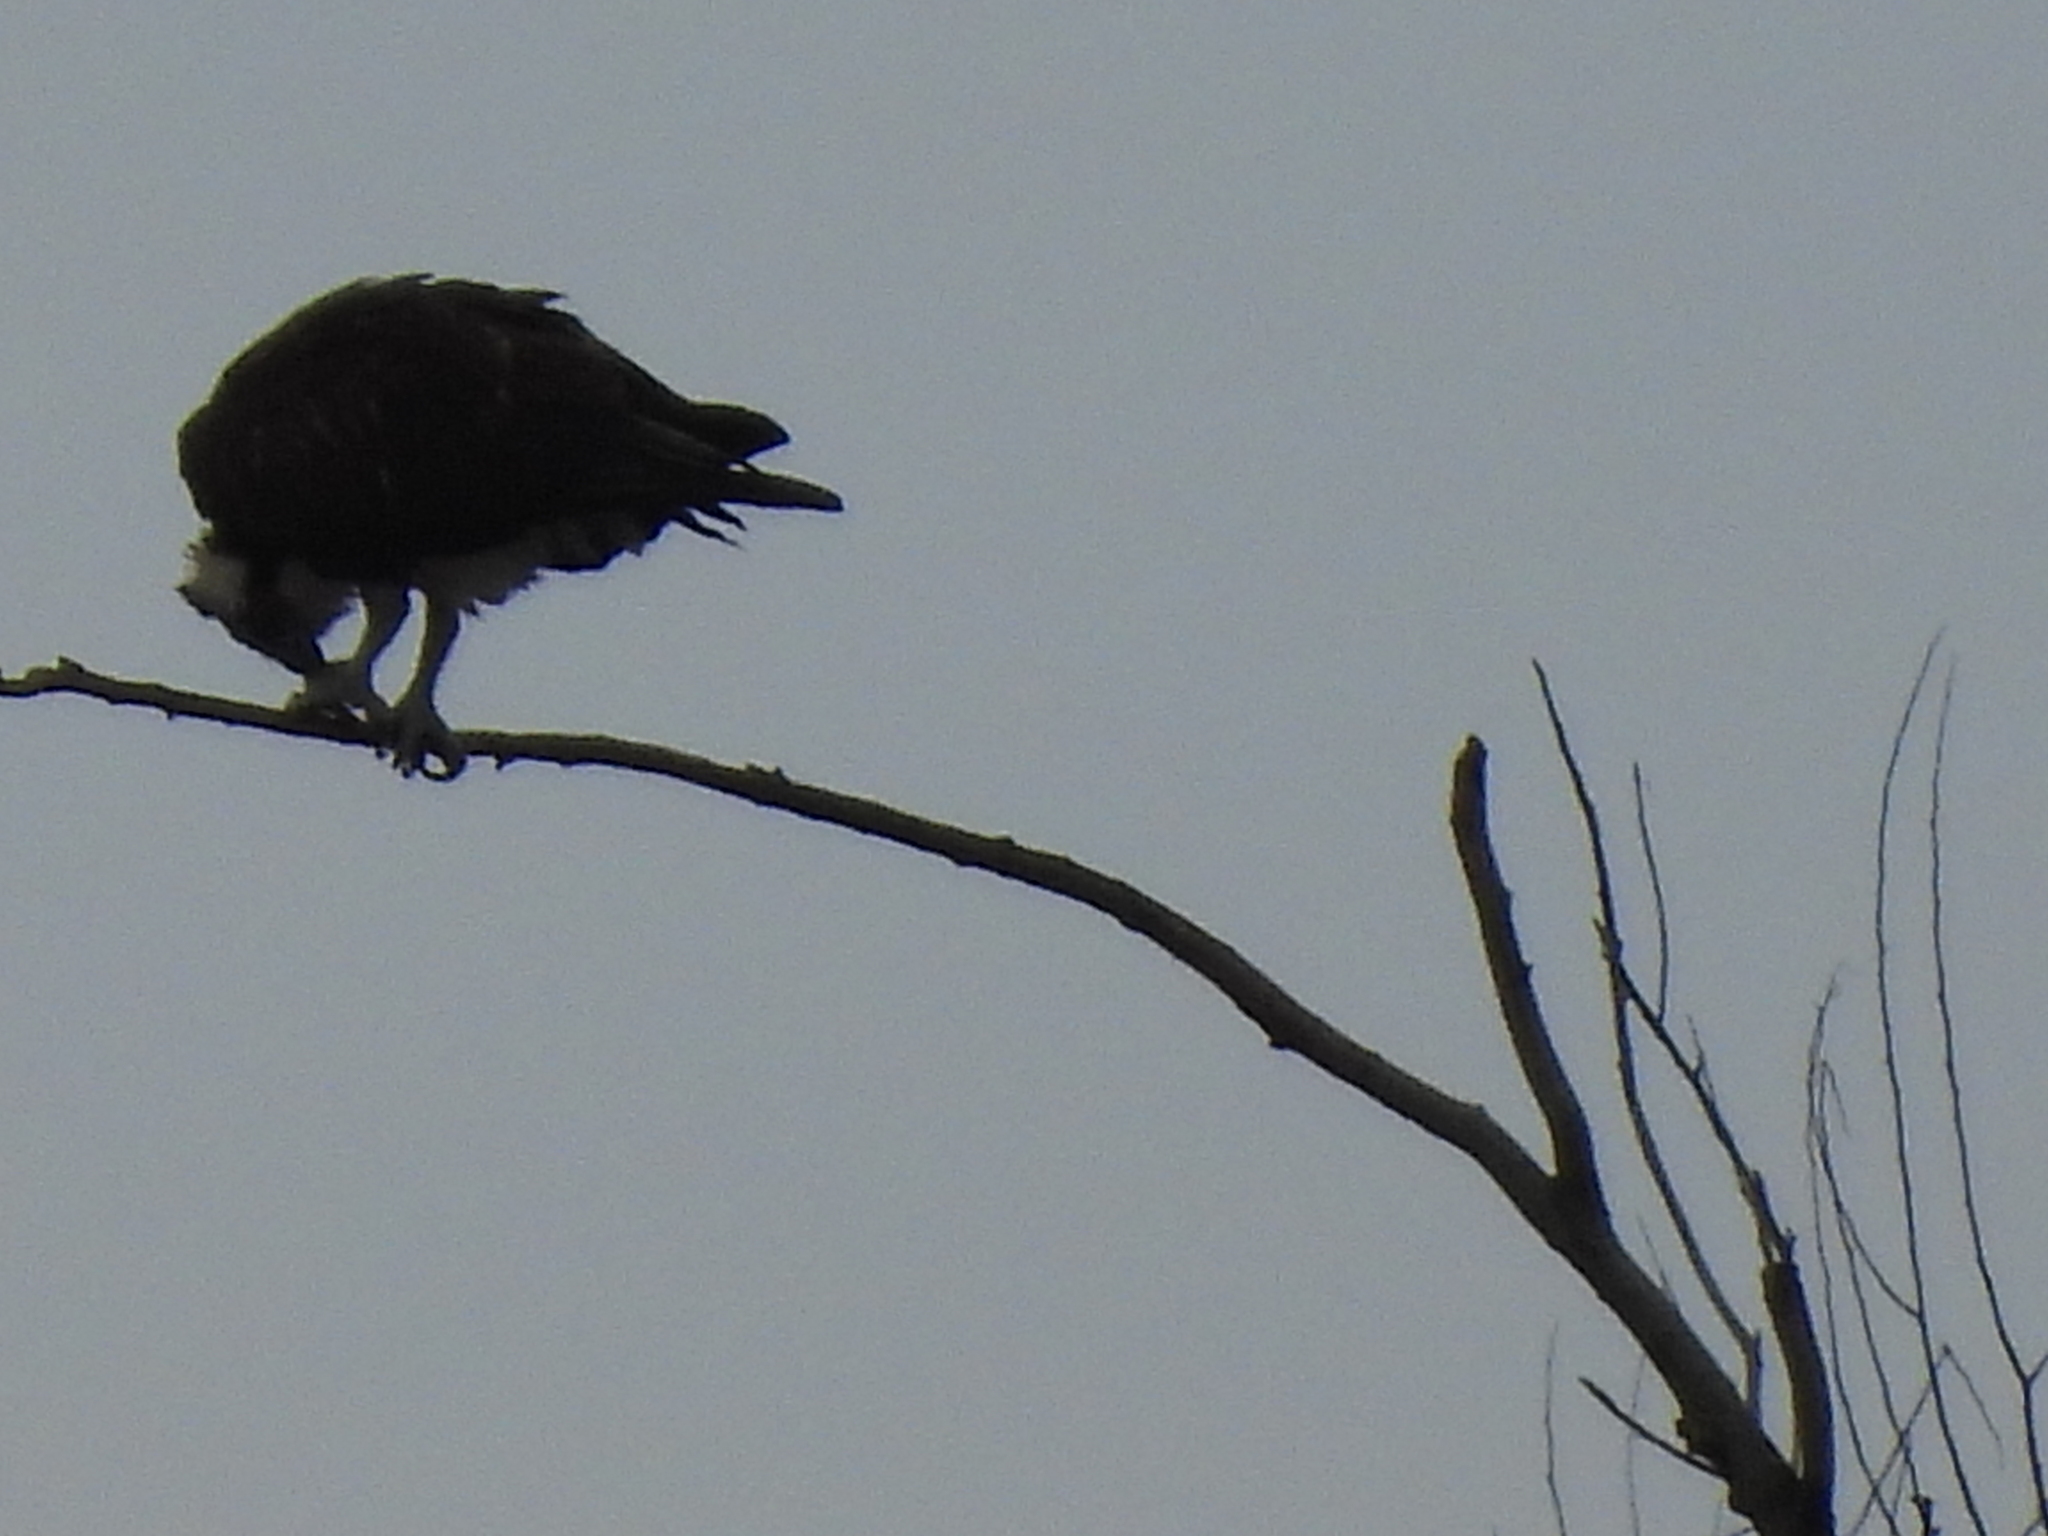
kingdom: Animalia
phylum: Chordata
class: Aves
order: Accipitriformes
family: Pandionidae
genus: Pandion
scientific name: Pandion haliaetus
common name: Osprey
